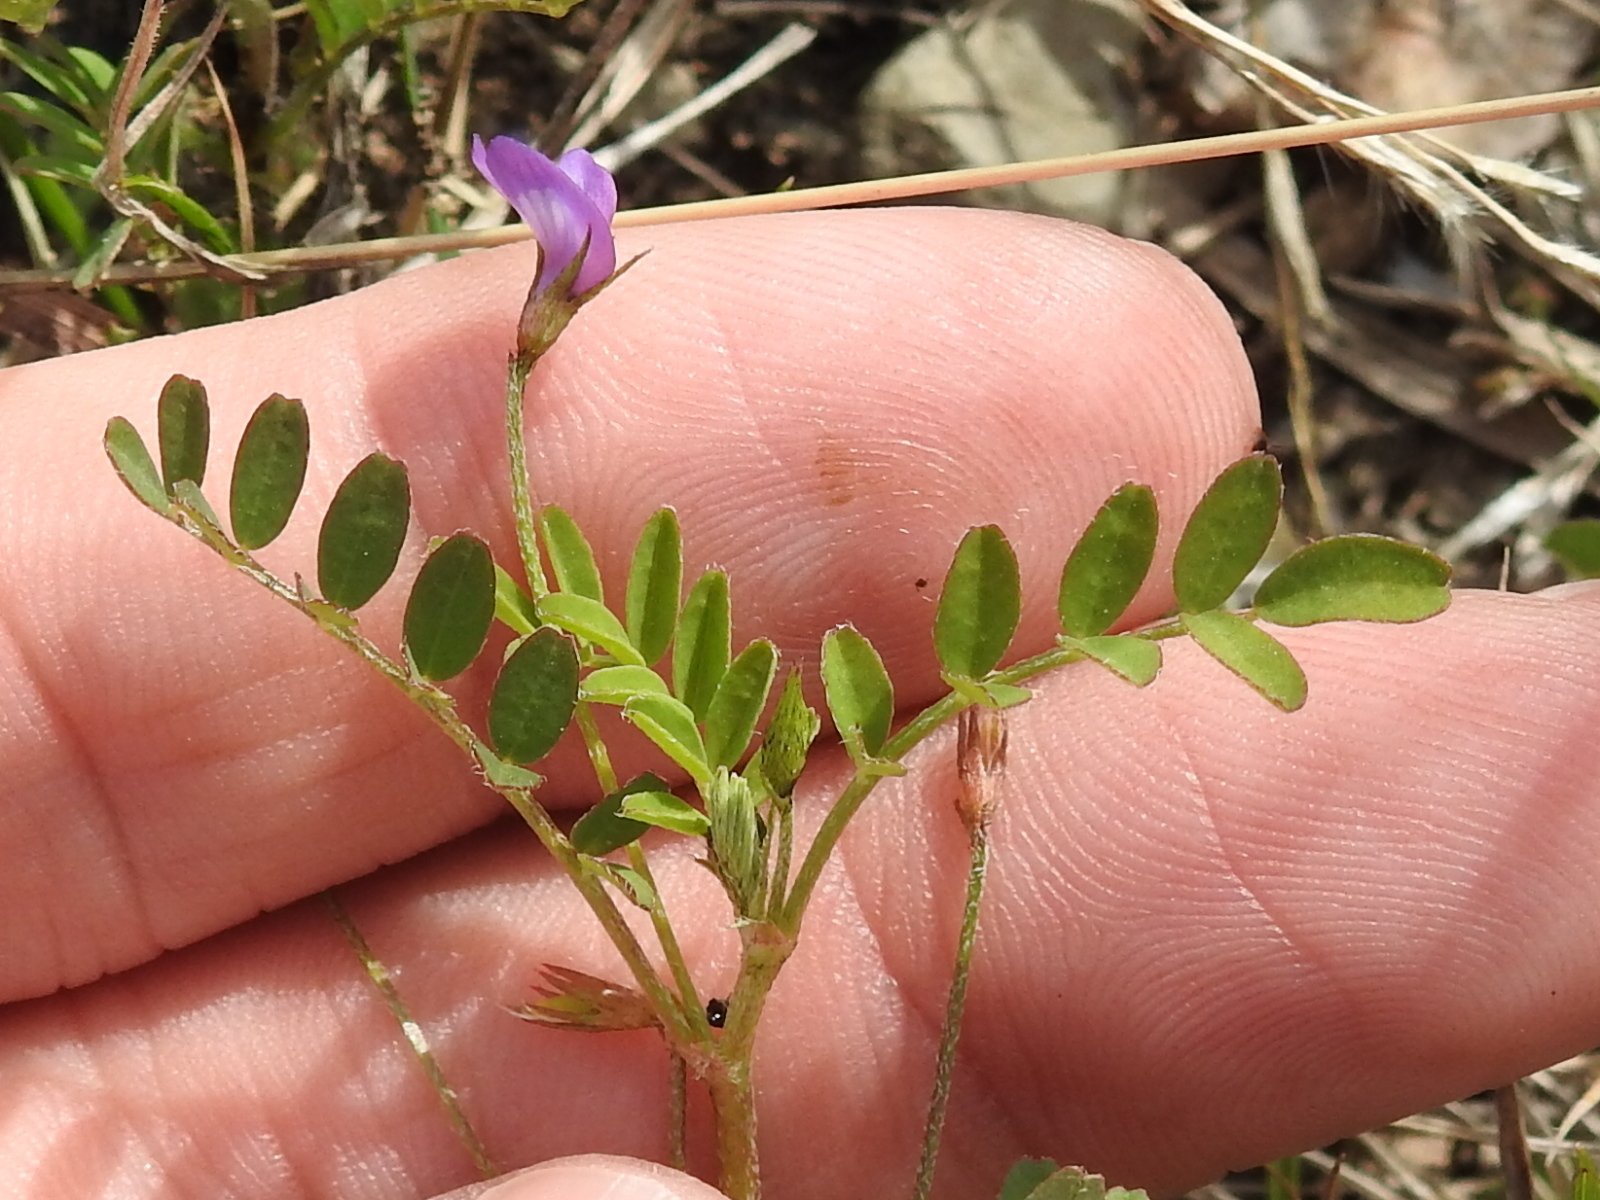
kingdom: Plantae
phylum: Tracheophyta
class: Magnoliopsida
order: Fabales
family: Fabaceae
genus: Astragalus
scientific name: Astragalus nuttallianus
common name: Smallflowered milkvetch
